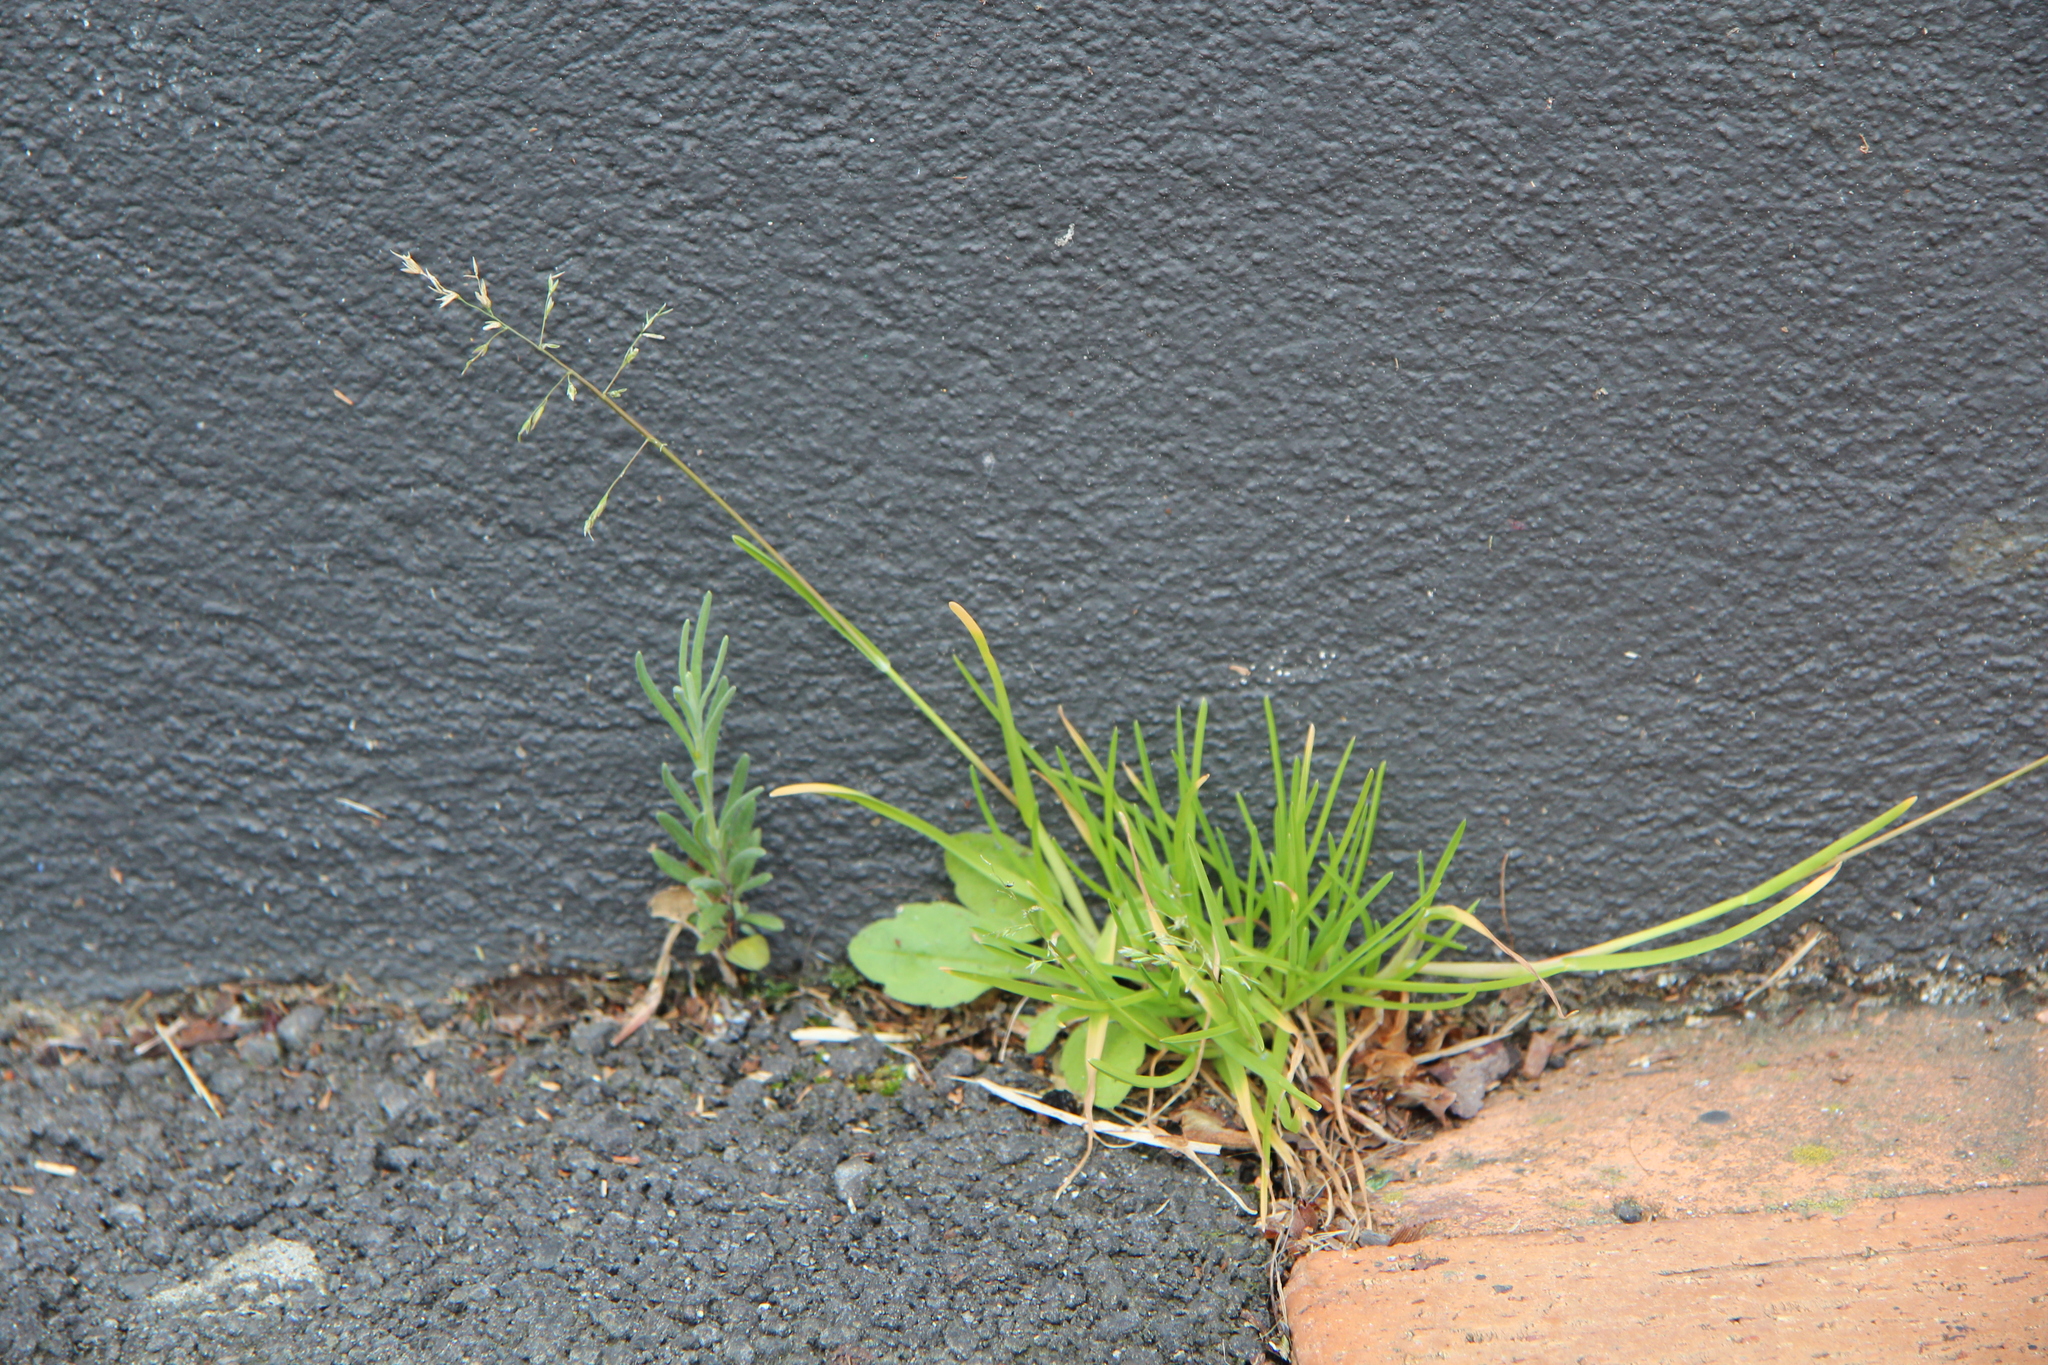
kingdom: Plantae
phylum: Tracheophyta
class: Liliopsida
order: Poales
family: Poaceae
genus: Poa
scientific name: Poa annua
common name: Annual bluegrass
